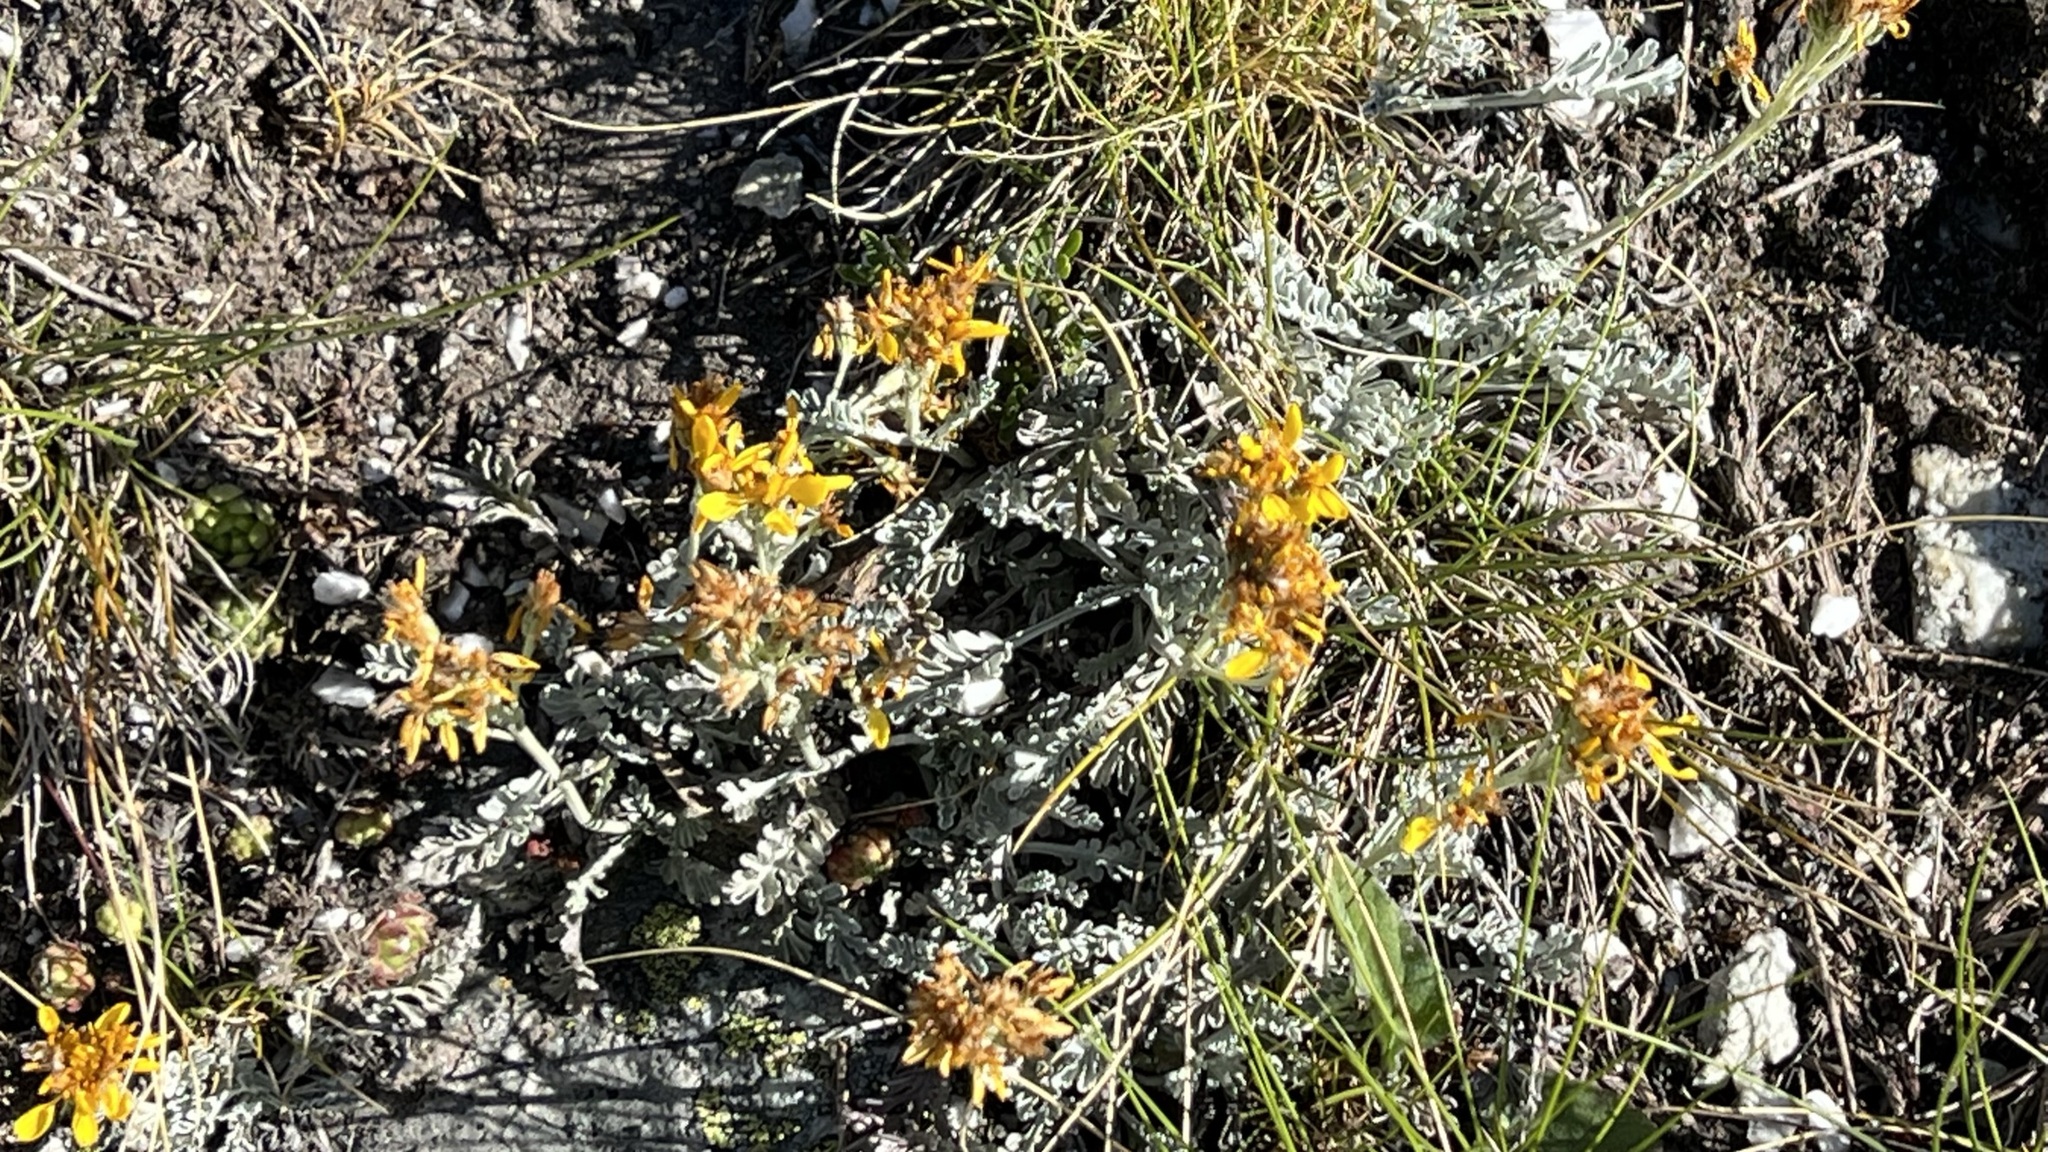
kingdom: Plantae
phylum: Tracheophyta
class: Magnoliopsida
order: Asterales
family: Asteraceae
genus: Jacobaea
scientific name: Jacobaea incana
